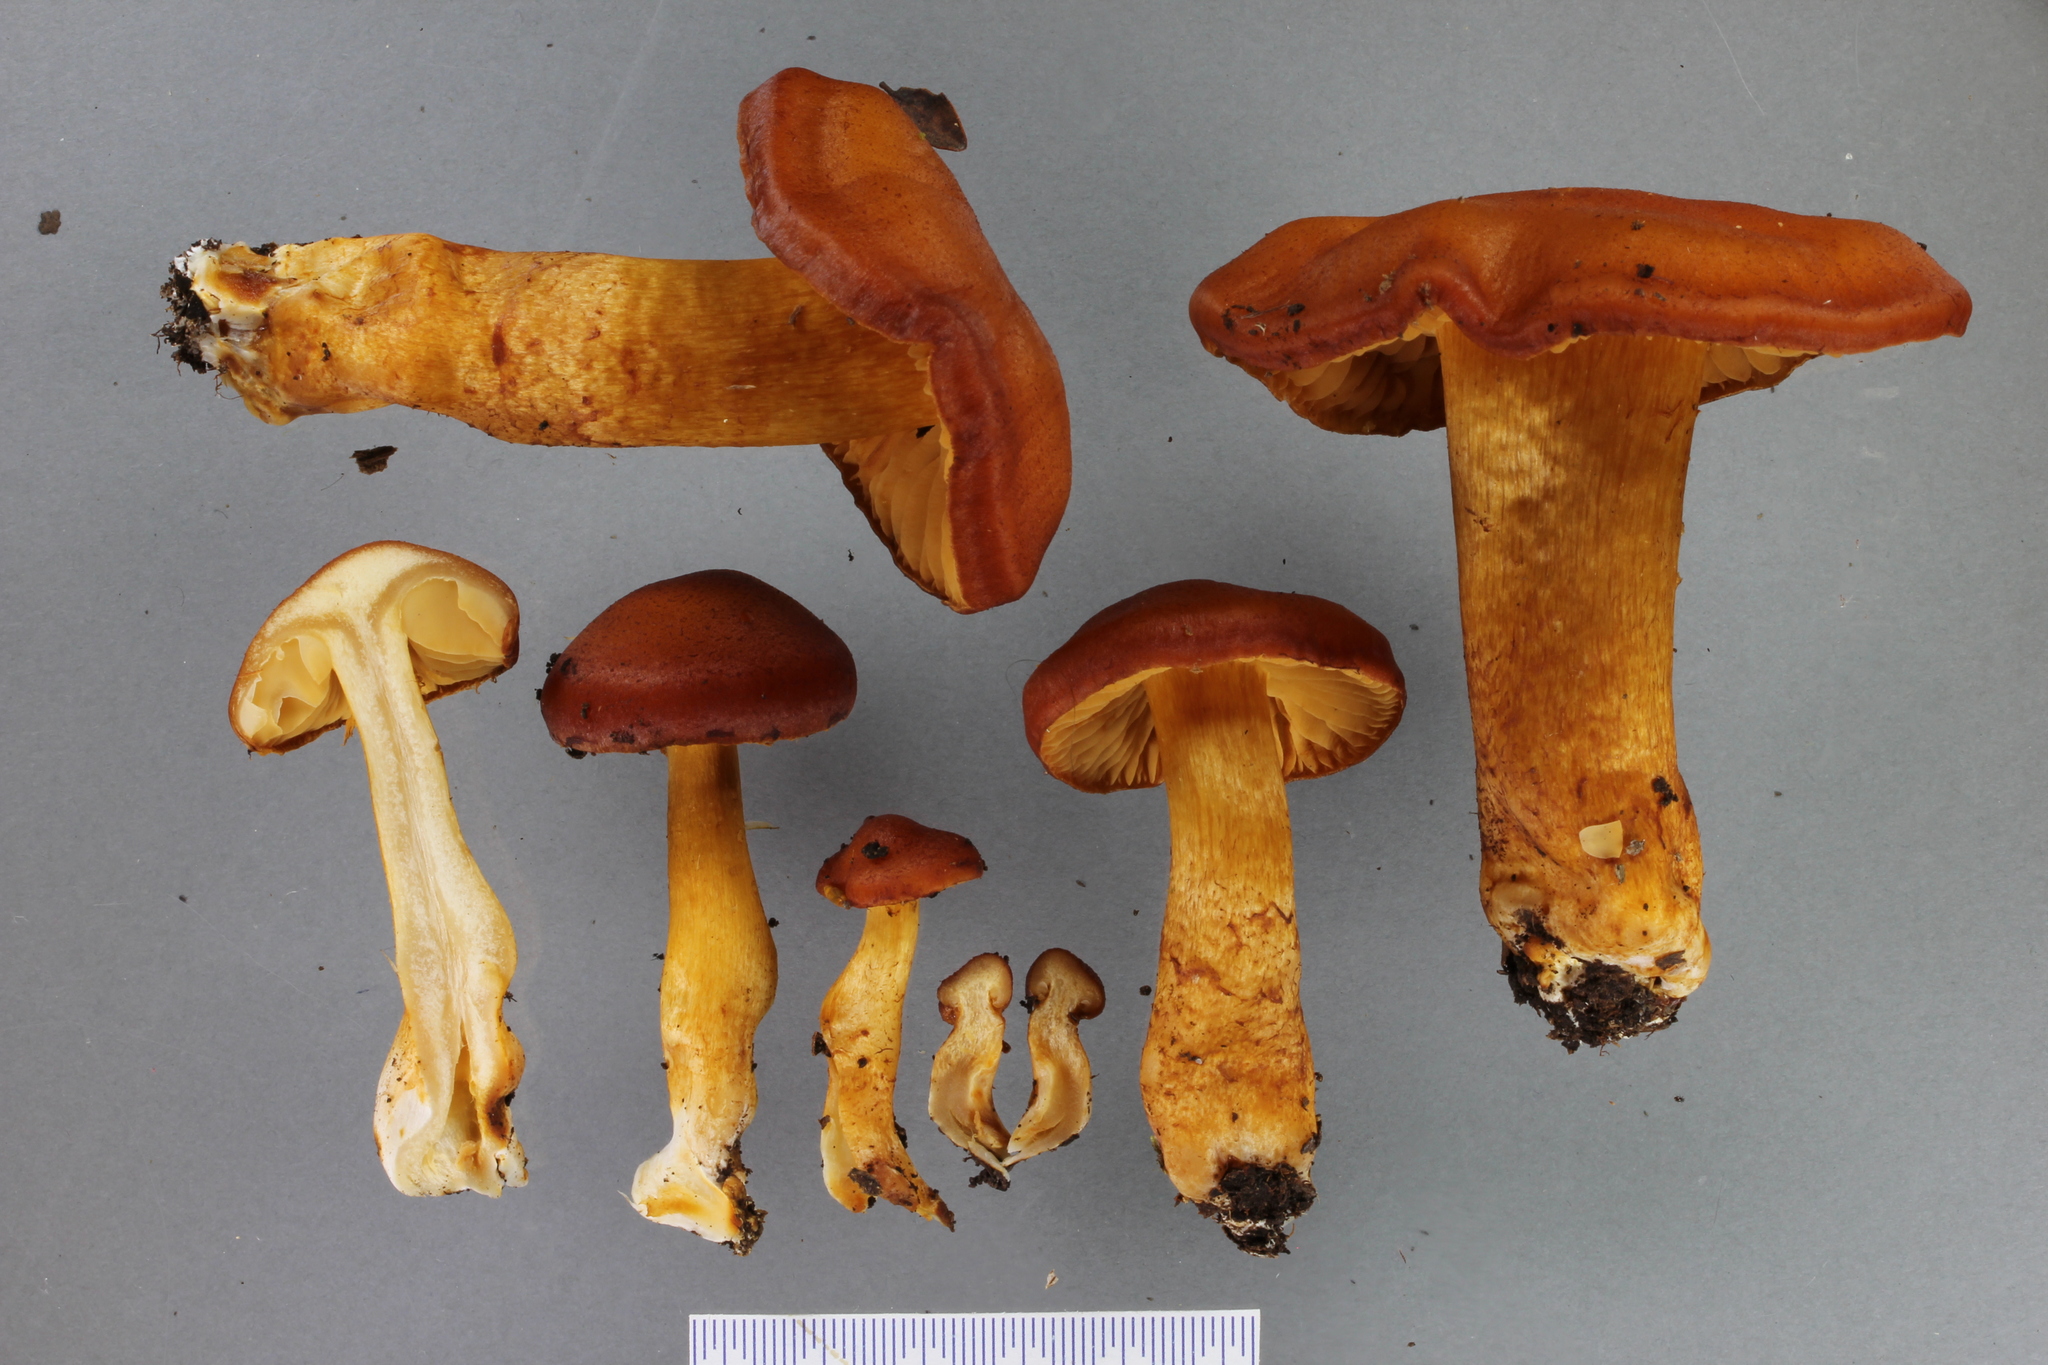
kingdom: Fungi
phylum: Basidiomycota
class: Agaricomycetes
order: Agaricales
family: Cortinariaceae
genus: Aureonarius
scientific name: Aureonarius rubrodactylus
